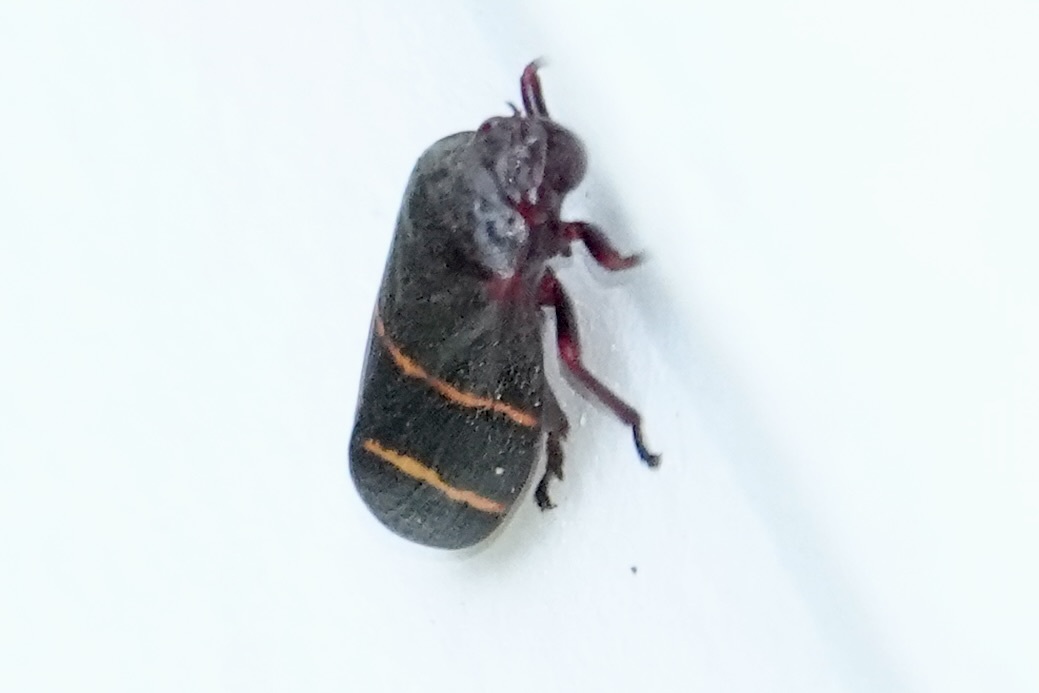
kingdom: Animalia
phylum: Arthropoda
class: Insecta
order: Hemiptera
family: Cercopidae
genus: Prosapia
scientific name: Prosapia bicincta
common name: Twolined spittlebug
